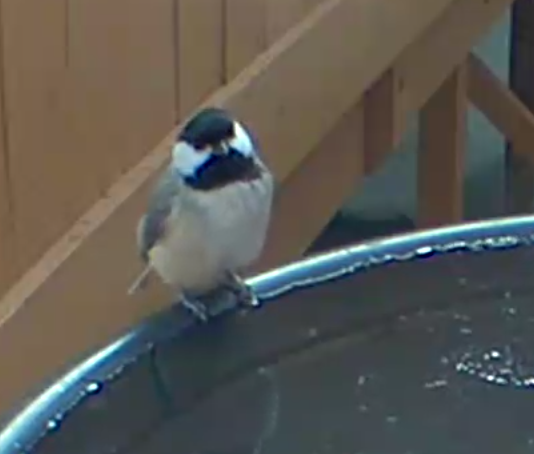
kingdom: Animalia
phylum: Chordata
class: Aves
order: Passeriformes
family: Paridae
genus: Poecile
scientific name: Poecile carolinensis
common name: Carolina chickadee
